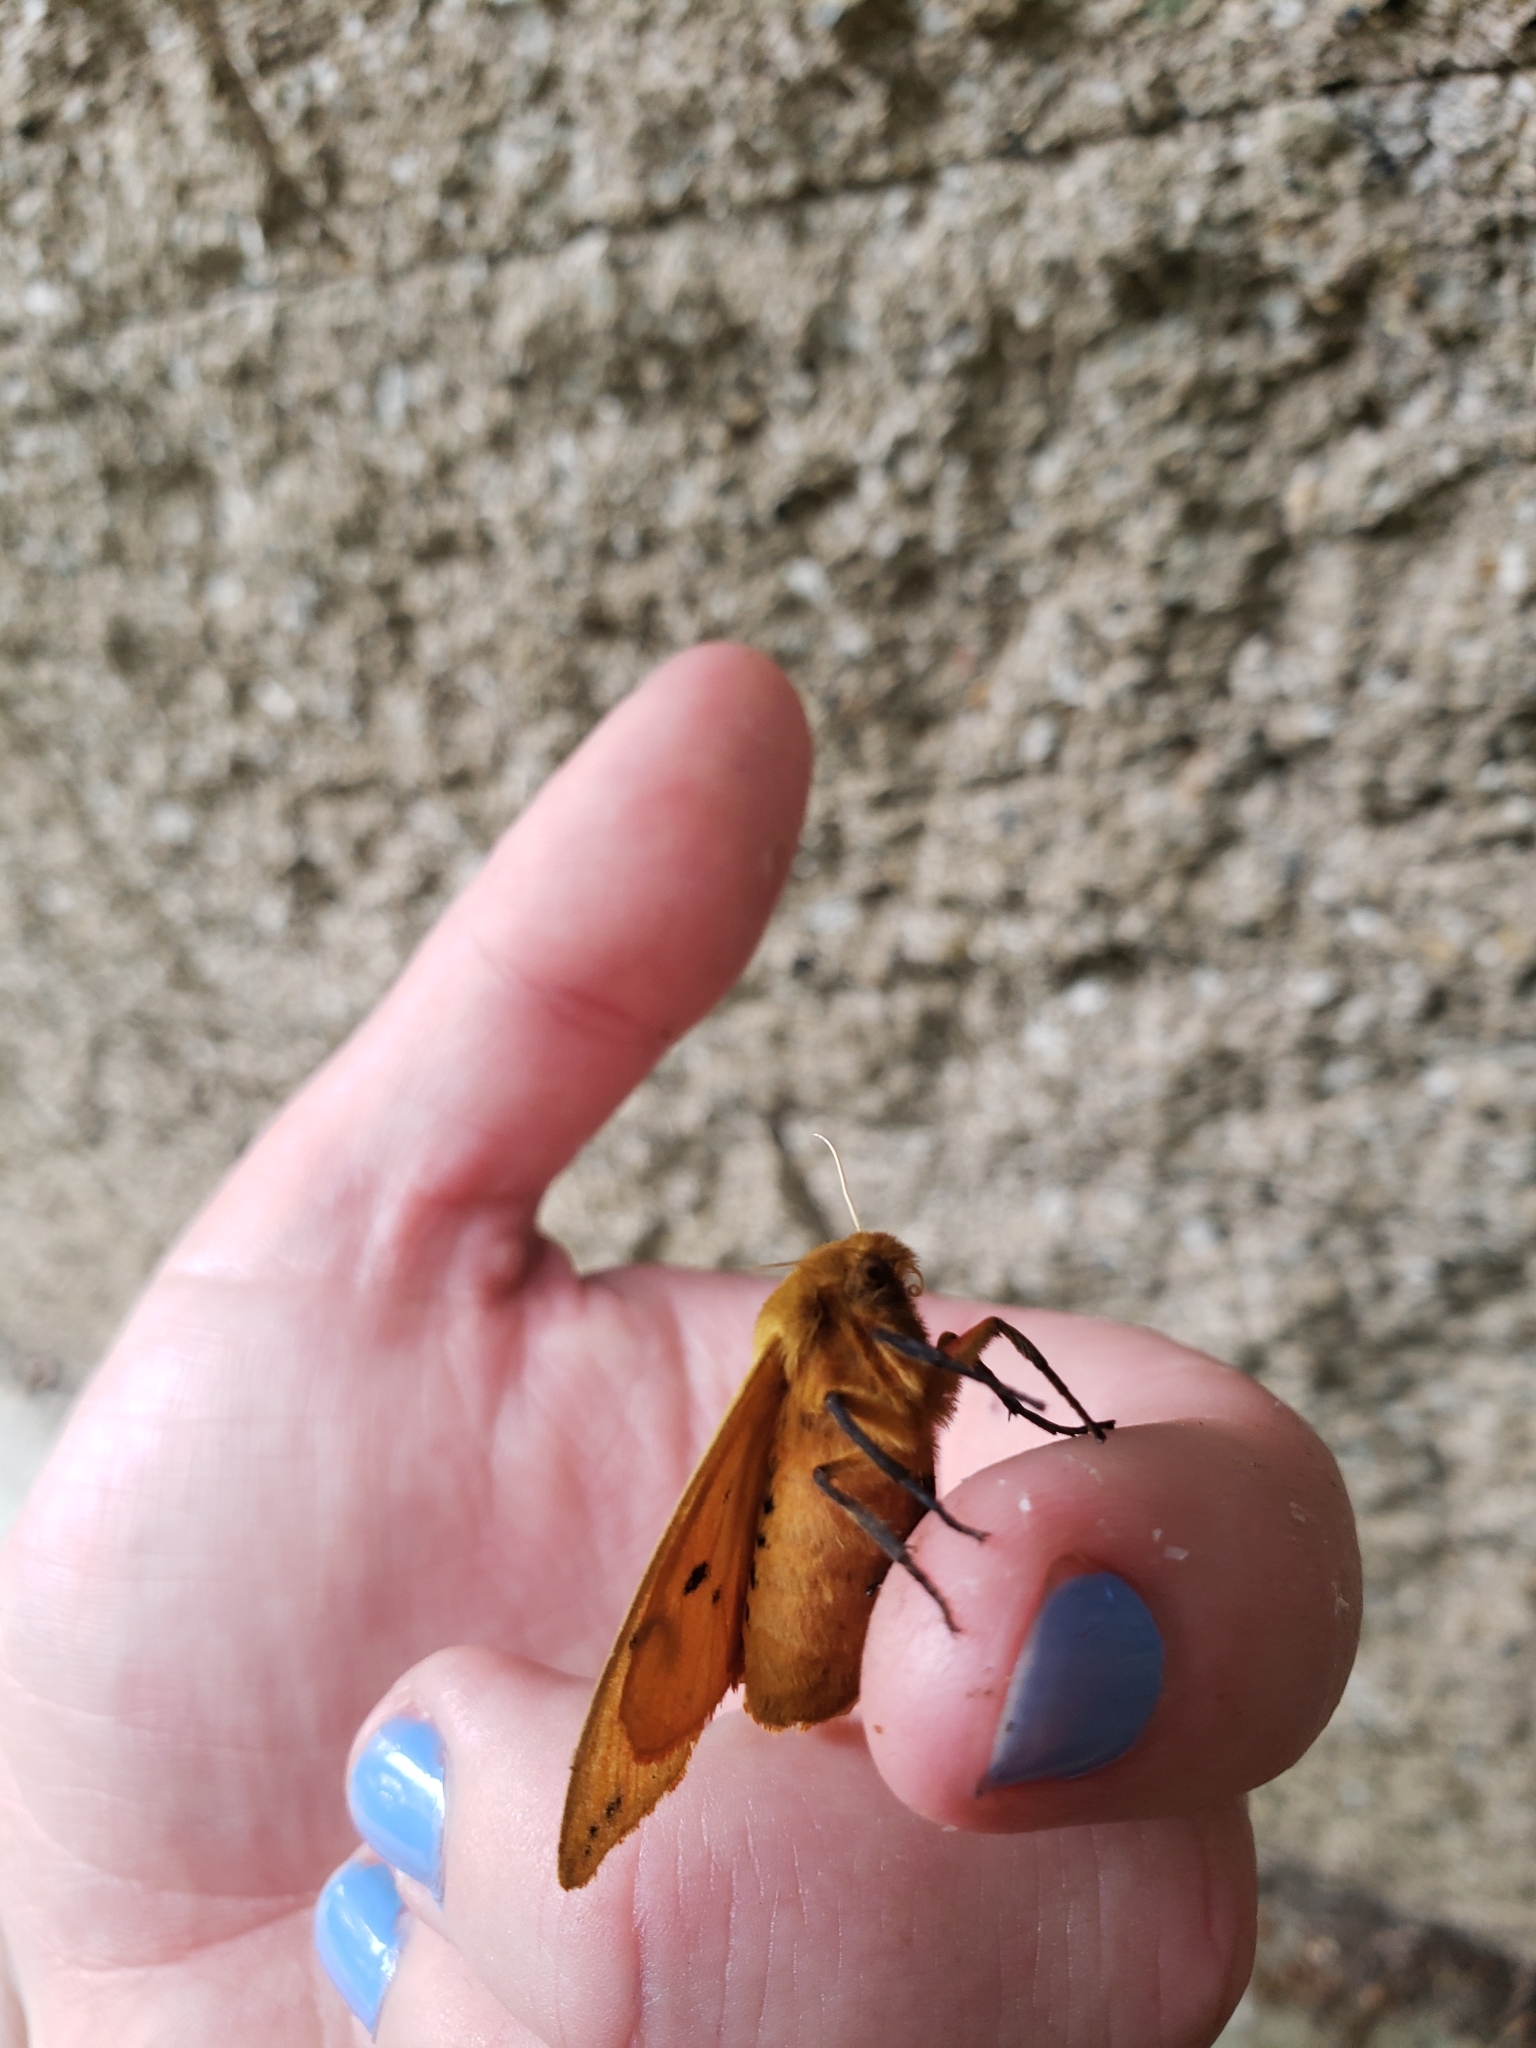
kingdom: Animalia
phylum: Arthropoda
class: Insecta
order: Lepidoptera
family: Erebidae
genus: Pyrrharctia
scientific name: Pyrrharctia isabella
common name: Isabella tiger moth
